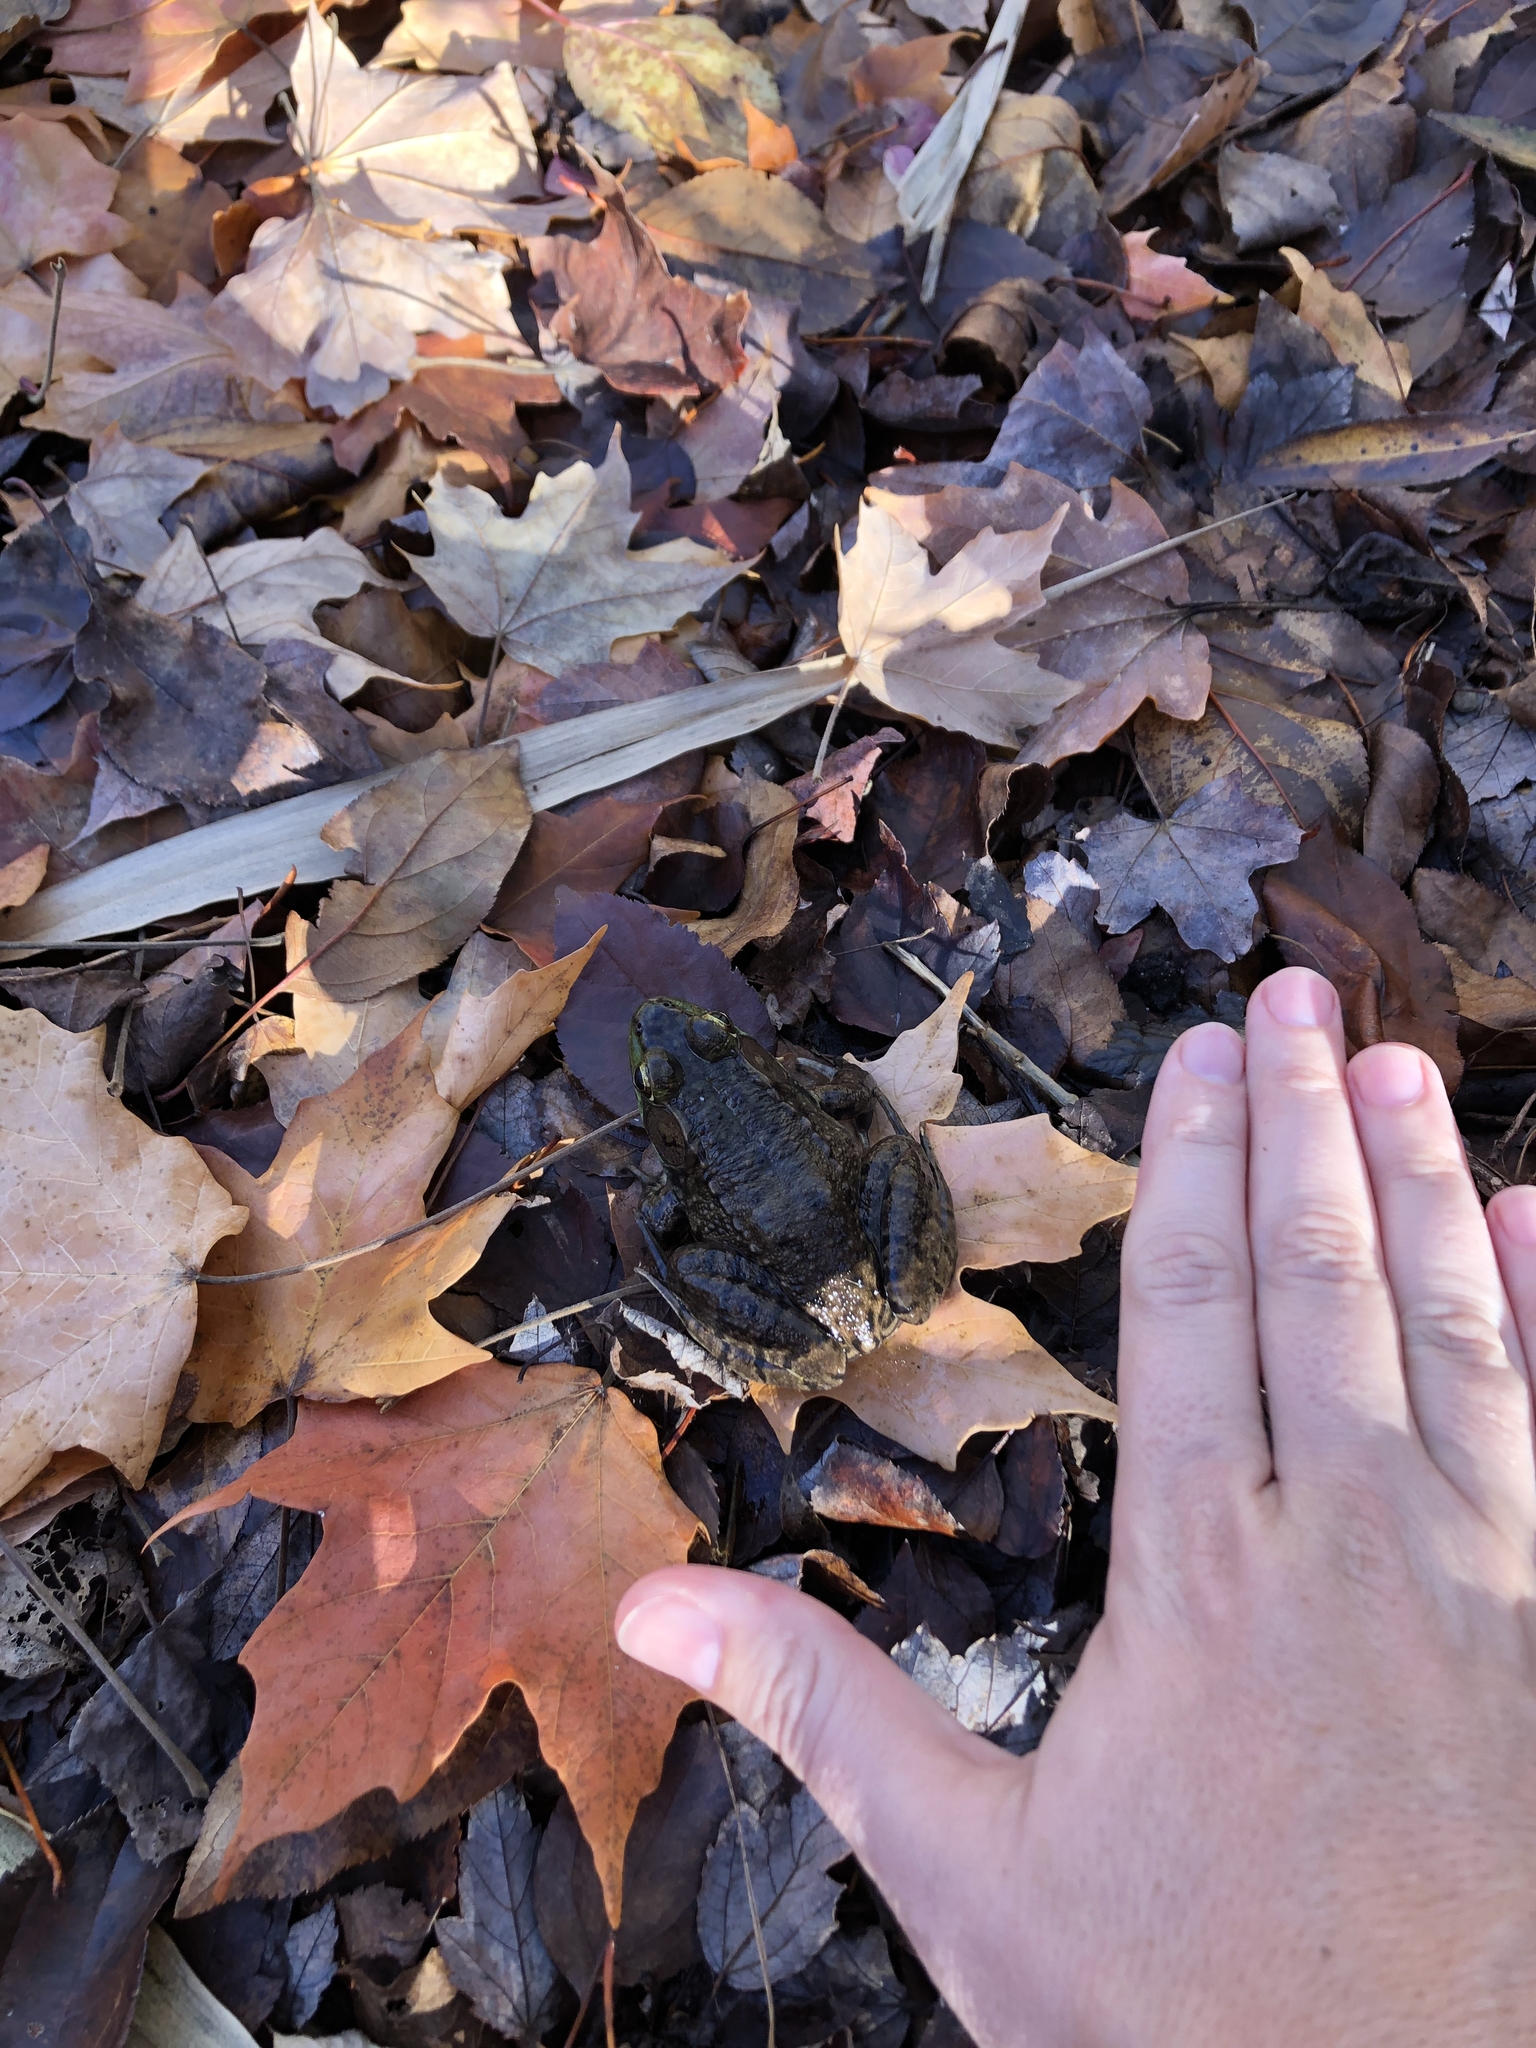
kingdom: Animalia
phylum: Chordata
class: Amphibia
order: Anura
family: Ranidae
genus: Lithobates
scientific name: Lithobates clamitans
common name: Green frog
